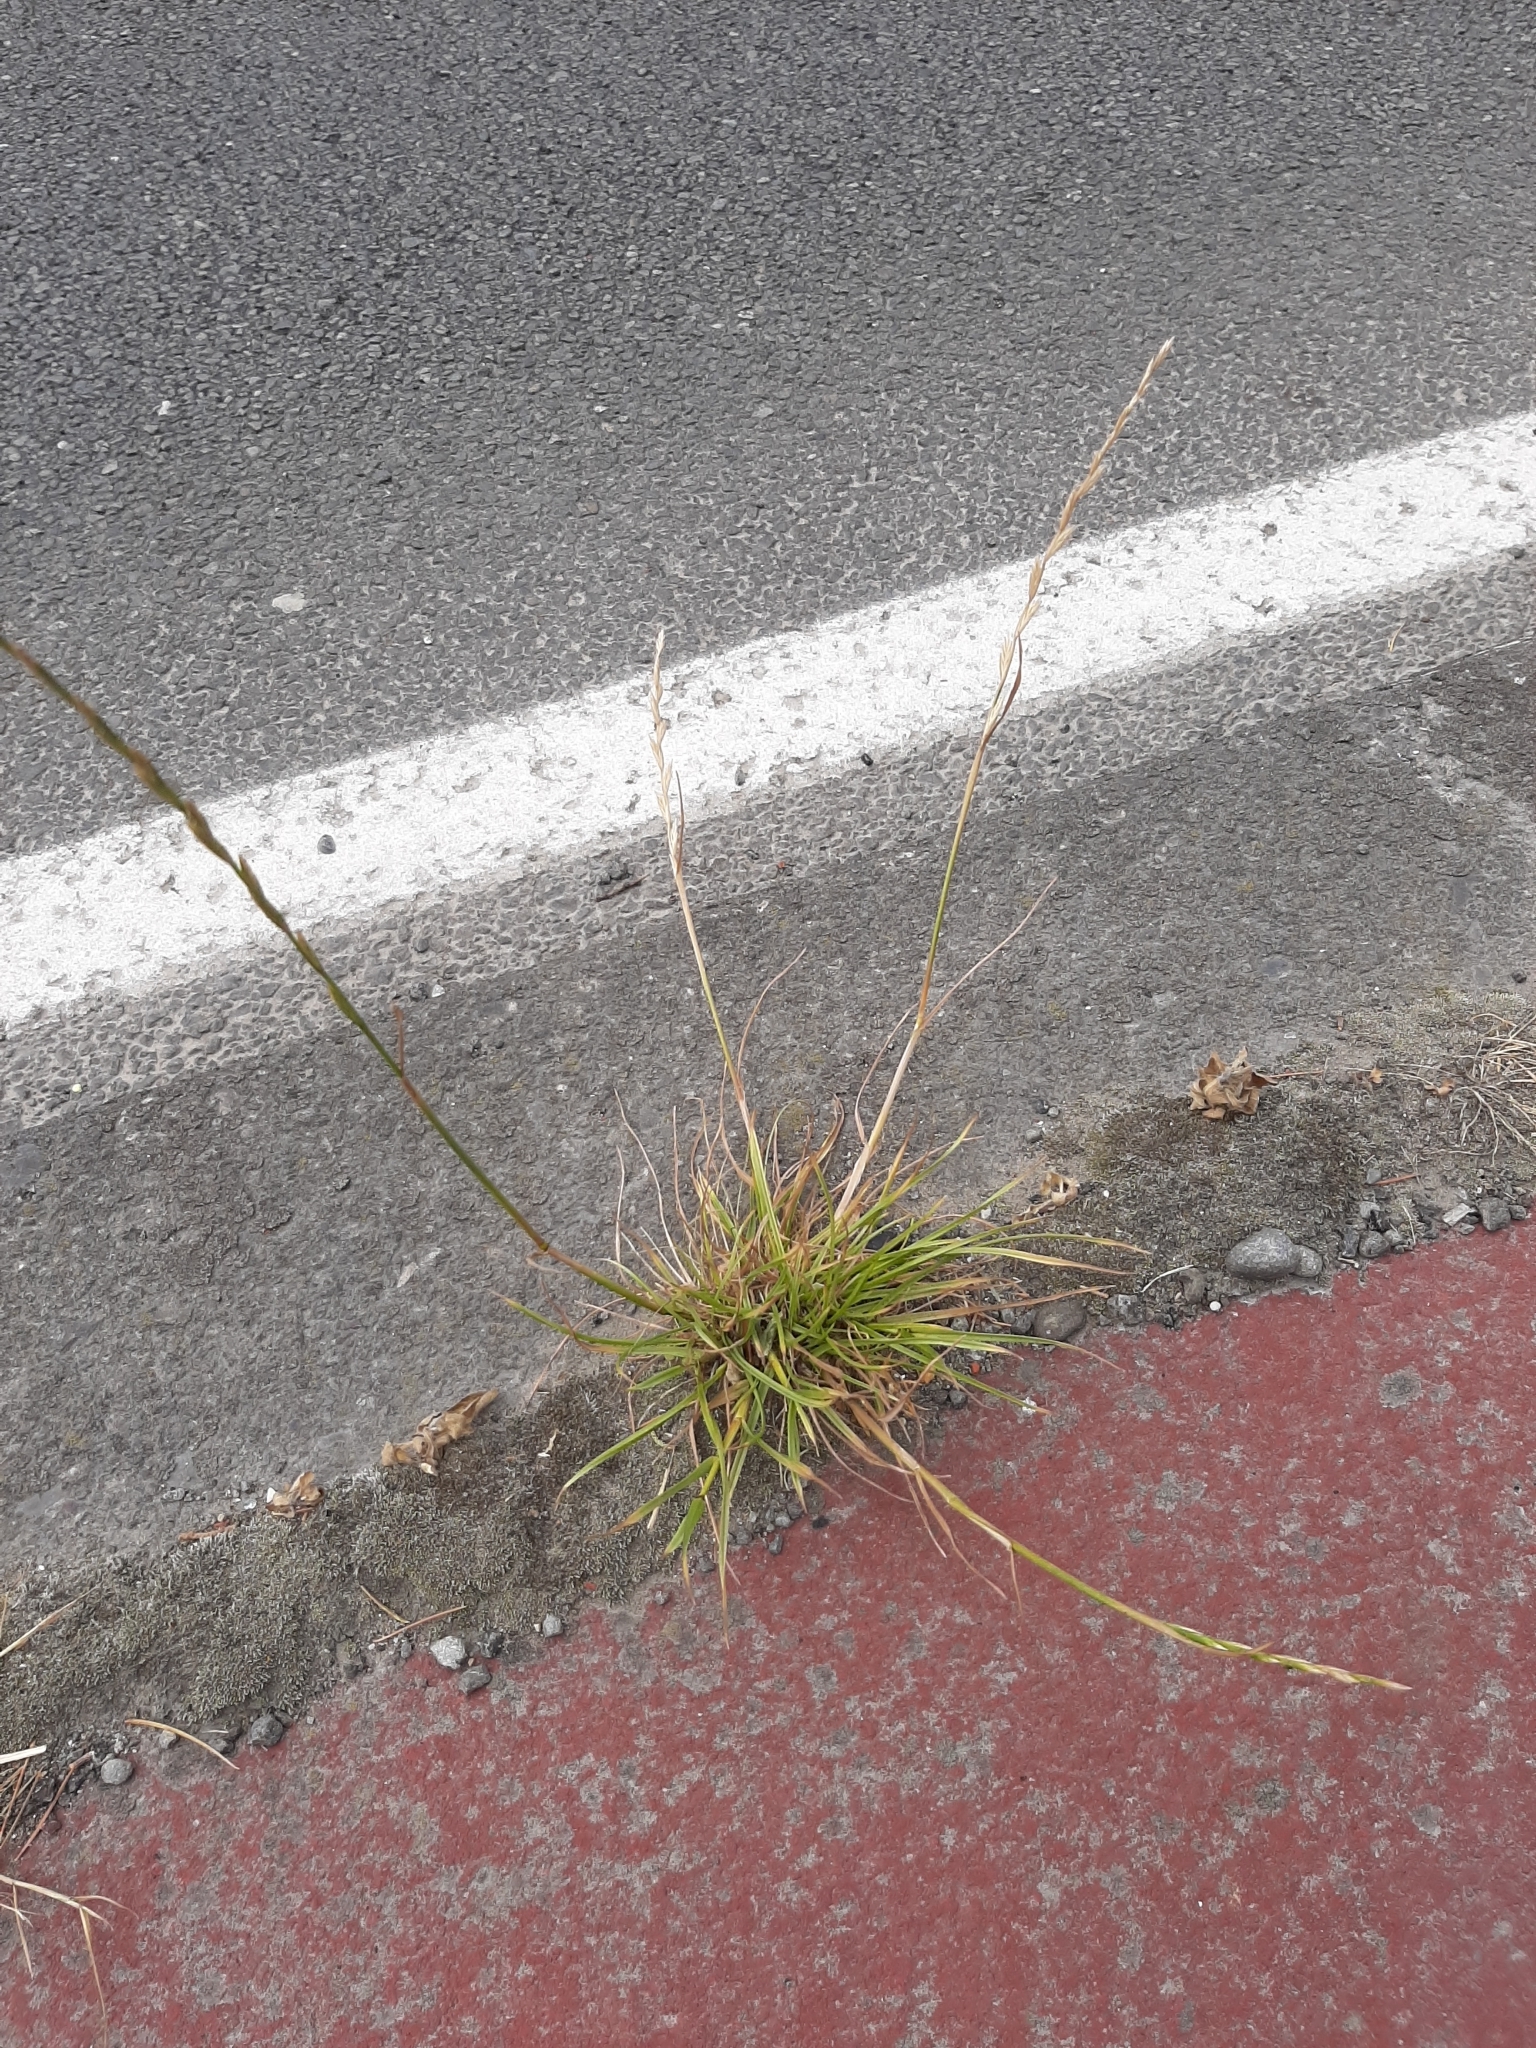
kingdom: Plantae
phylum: Tracheophyta
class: Liliopsida
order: Poales
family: Poaceae
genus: Lolium
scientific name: Lolium perenne
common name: Perennial ryegrass
